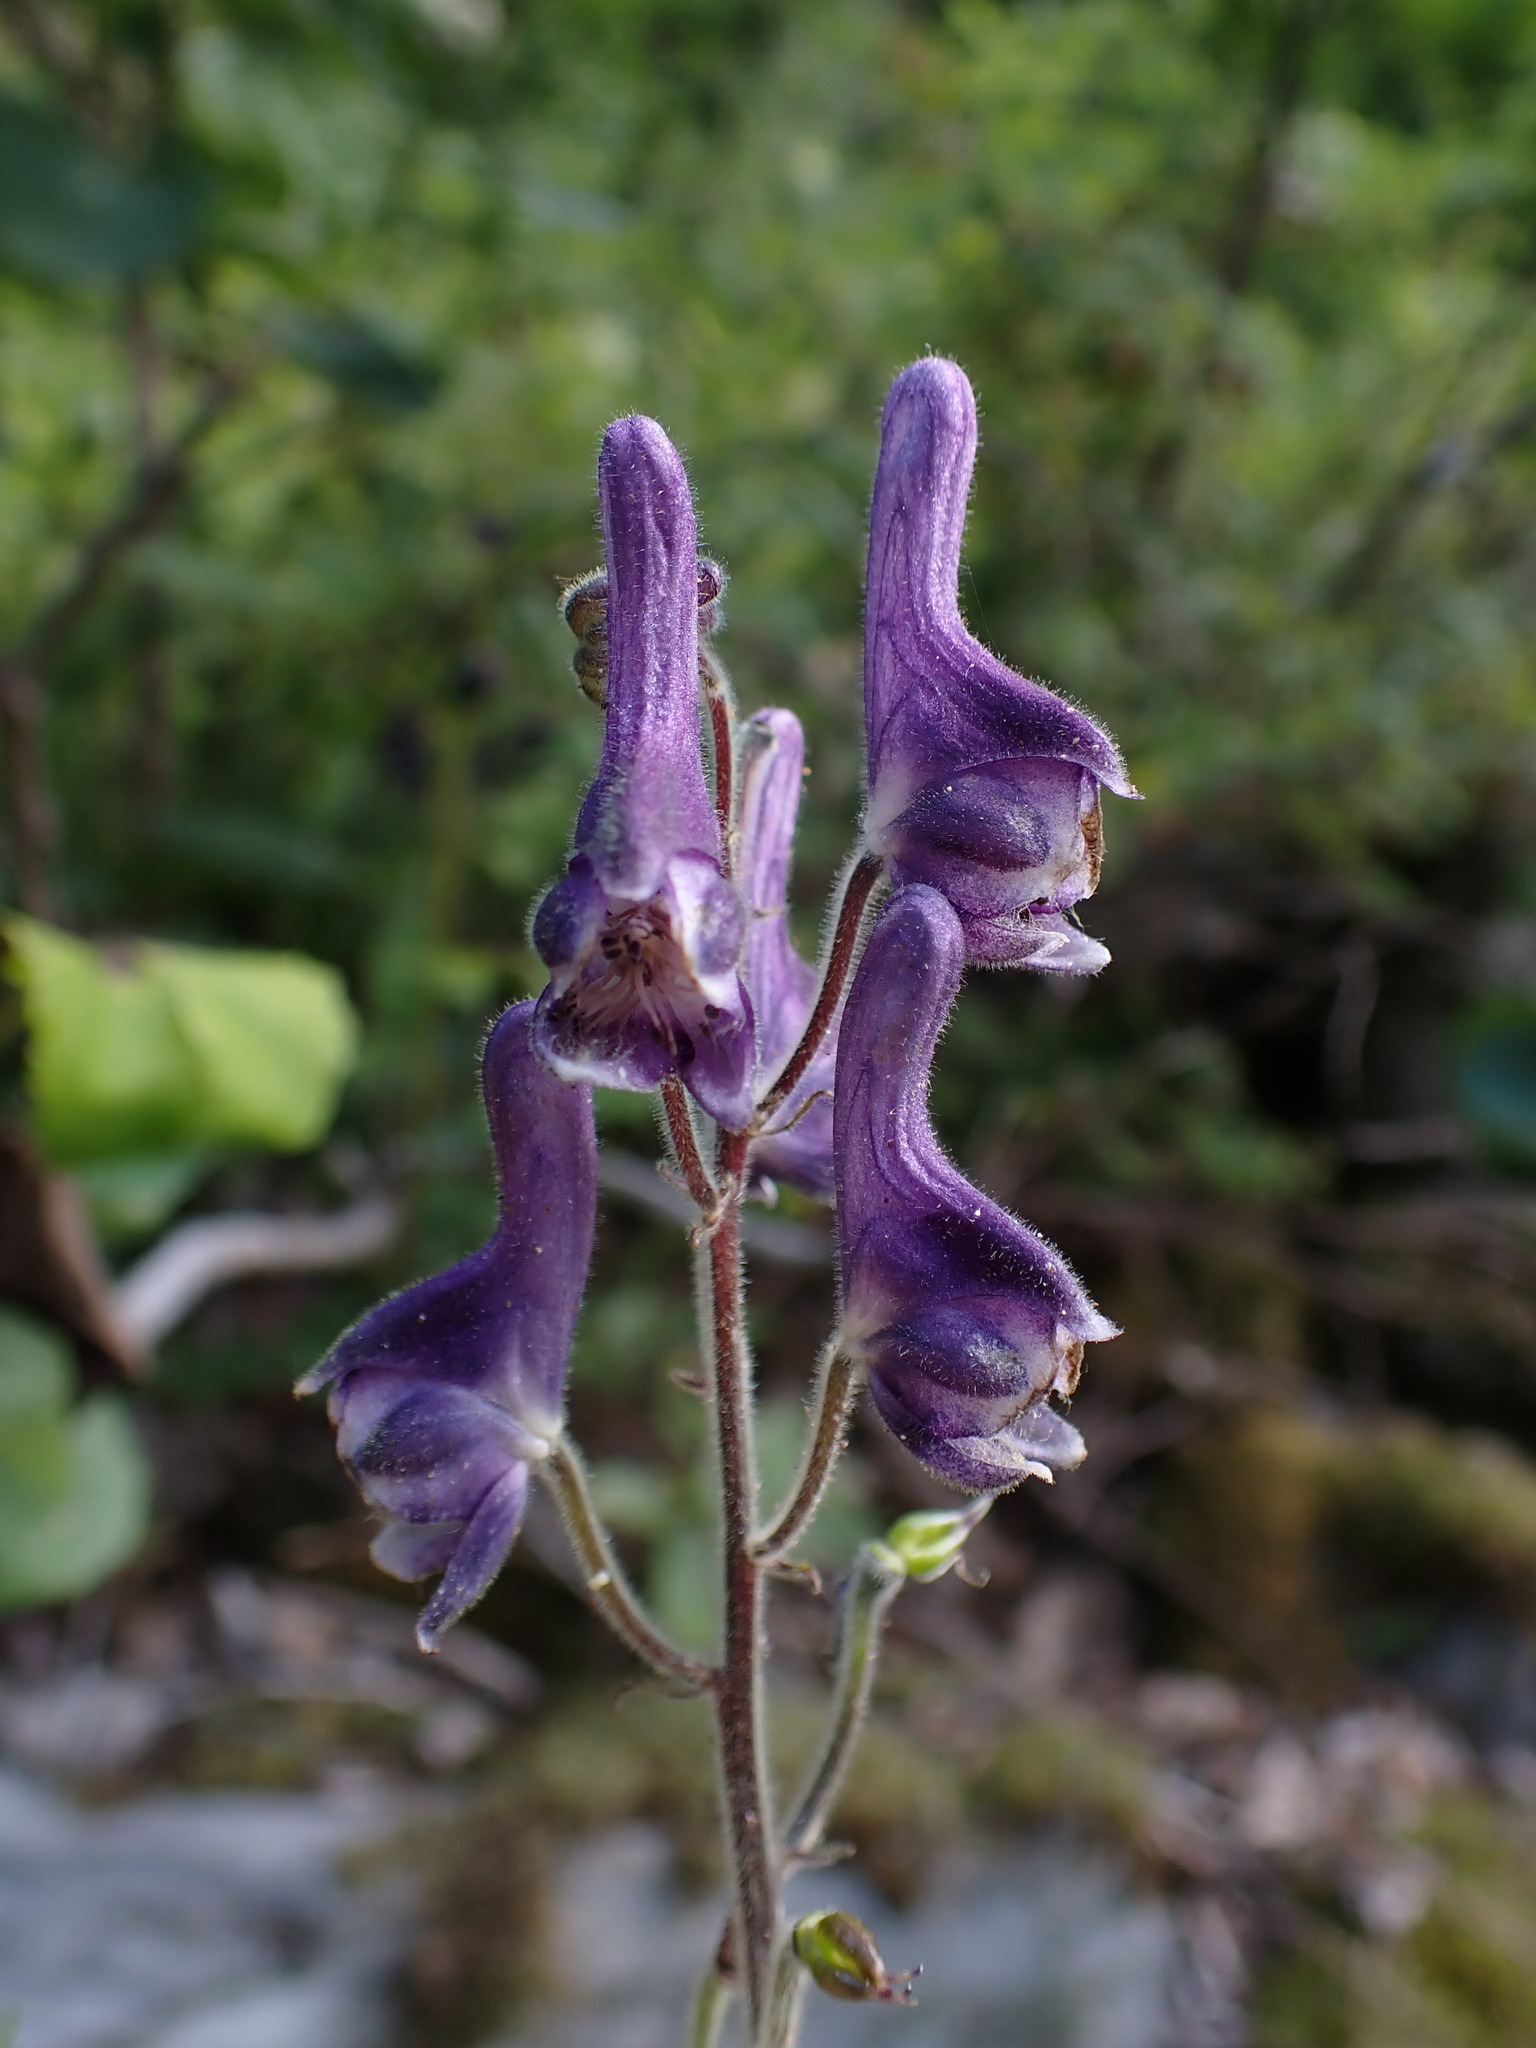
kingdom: Plantae
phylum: Tracheophyta
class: Magnoliopsida
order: Ranunculales
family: Ranunculaceae
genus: Aconitum
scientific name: Aconitum septentrionale
